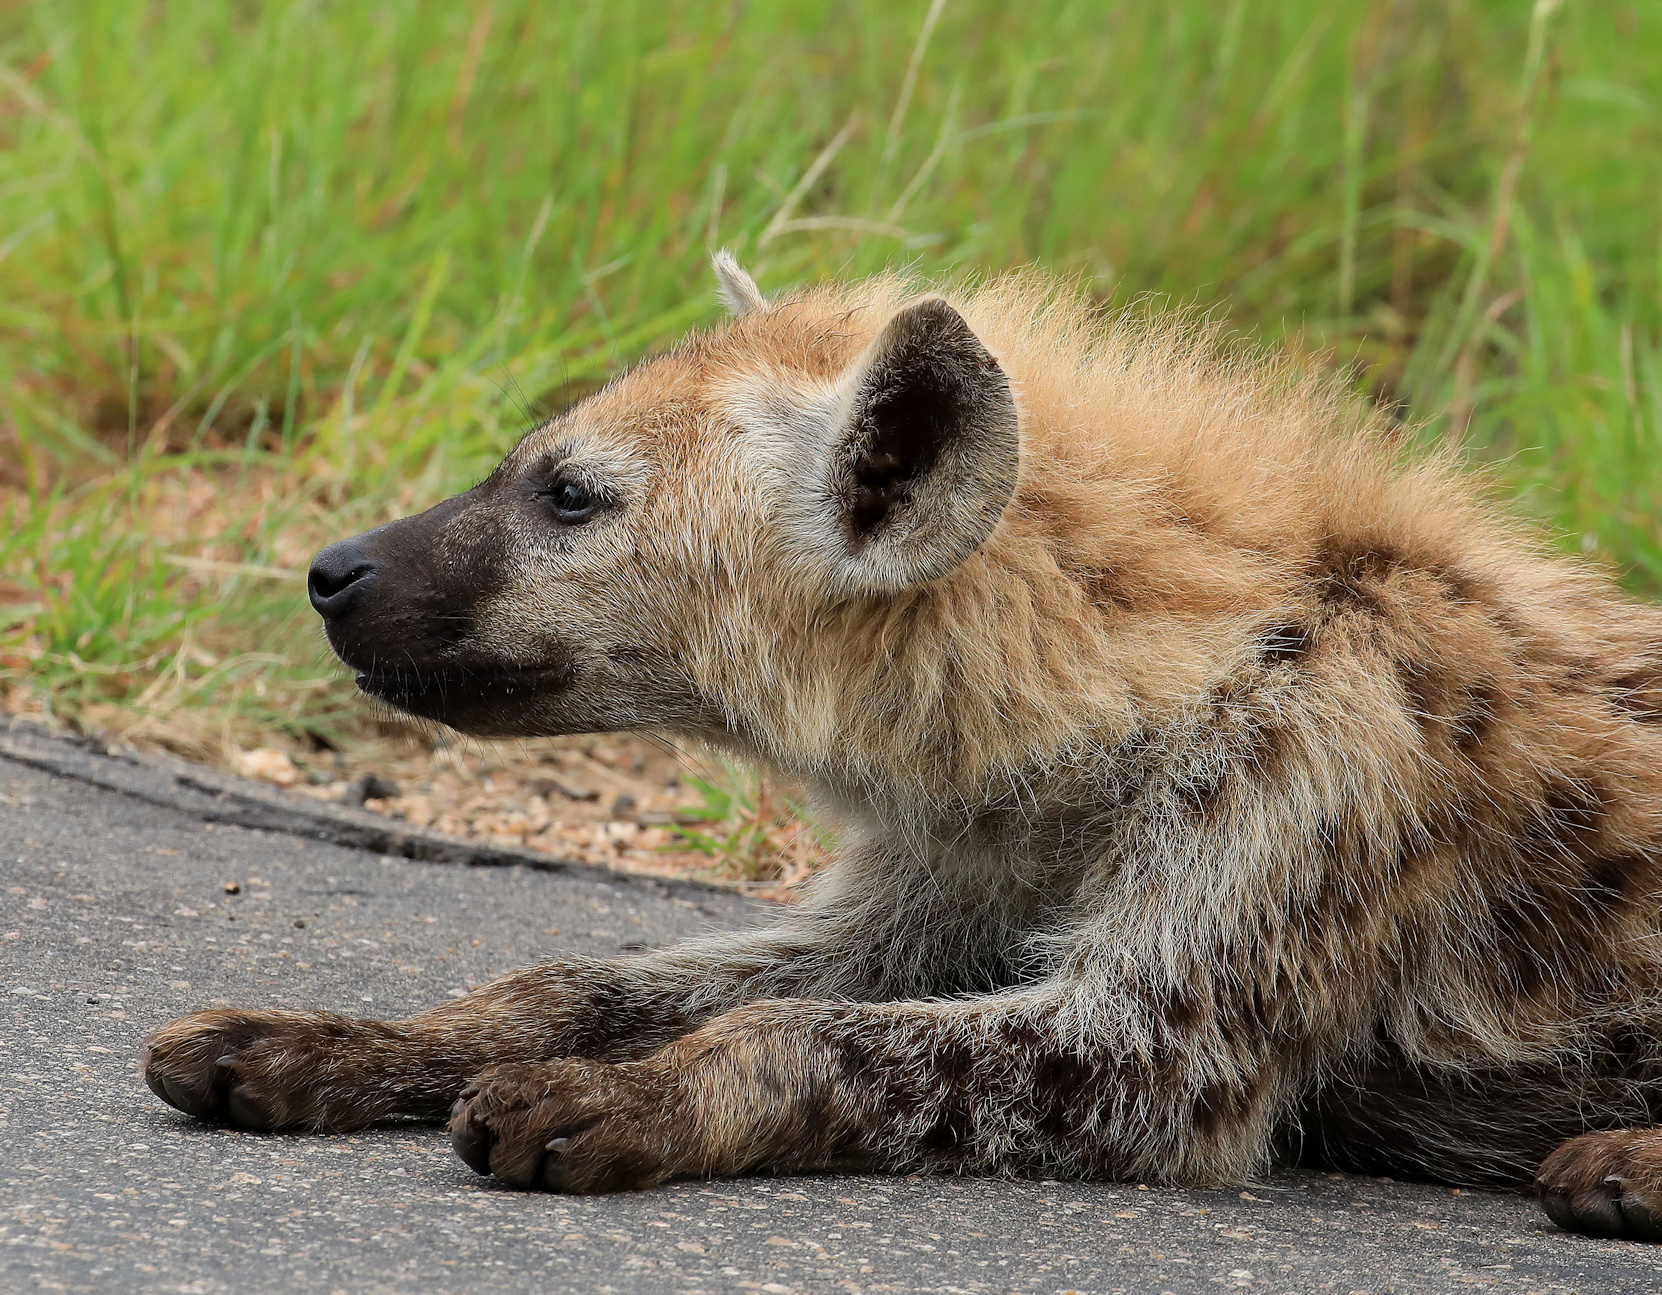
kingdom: Animalia
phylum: Chordata
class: Mammalia
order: Carnivora
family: Hyaenidae
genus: Crocuta
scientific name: Crocuta crocuta
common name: Spotted hyaena
